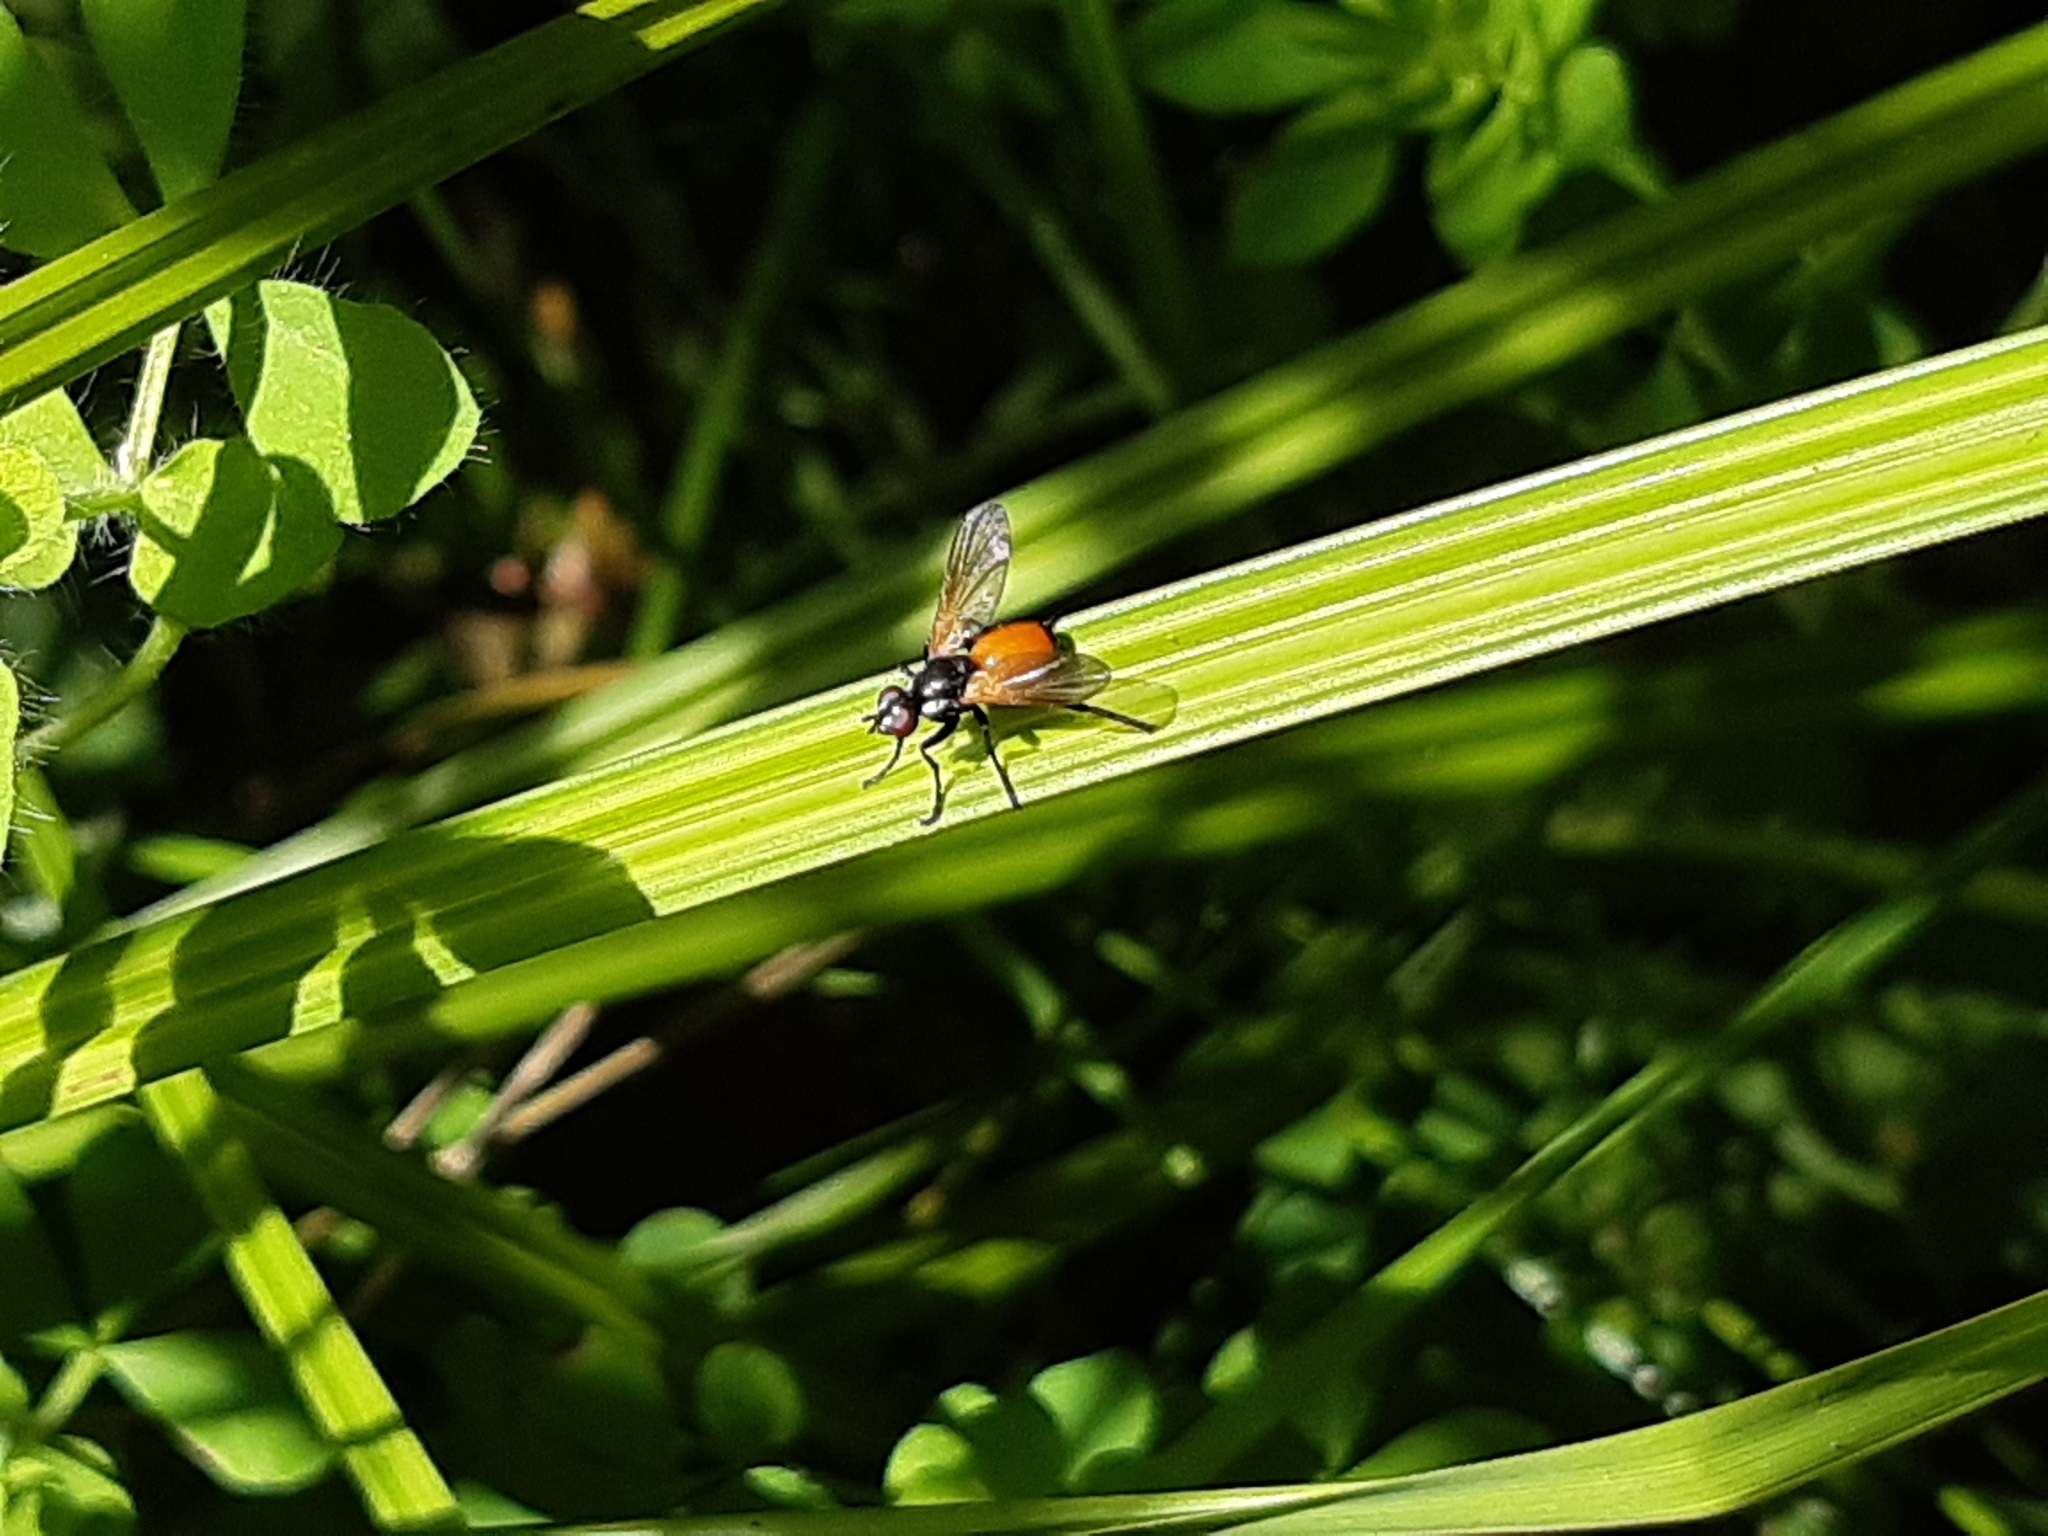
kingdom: Animalia
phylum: Arthropoda
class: Insecta
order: Diptera
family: Tachinidae
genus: Huttonobesseria
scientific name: Huttonobesseria verecunda
